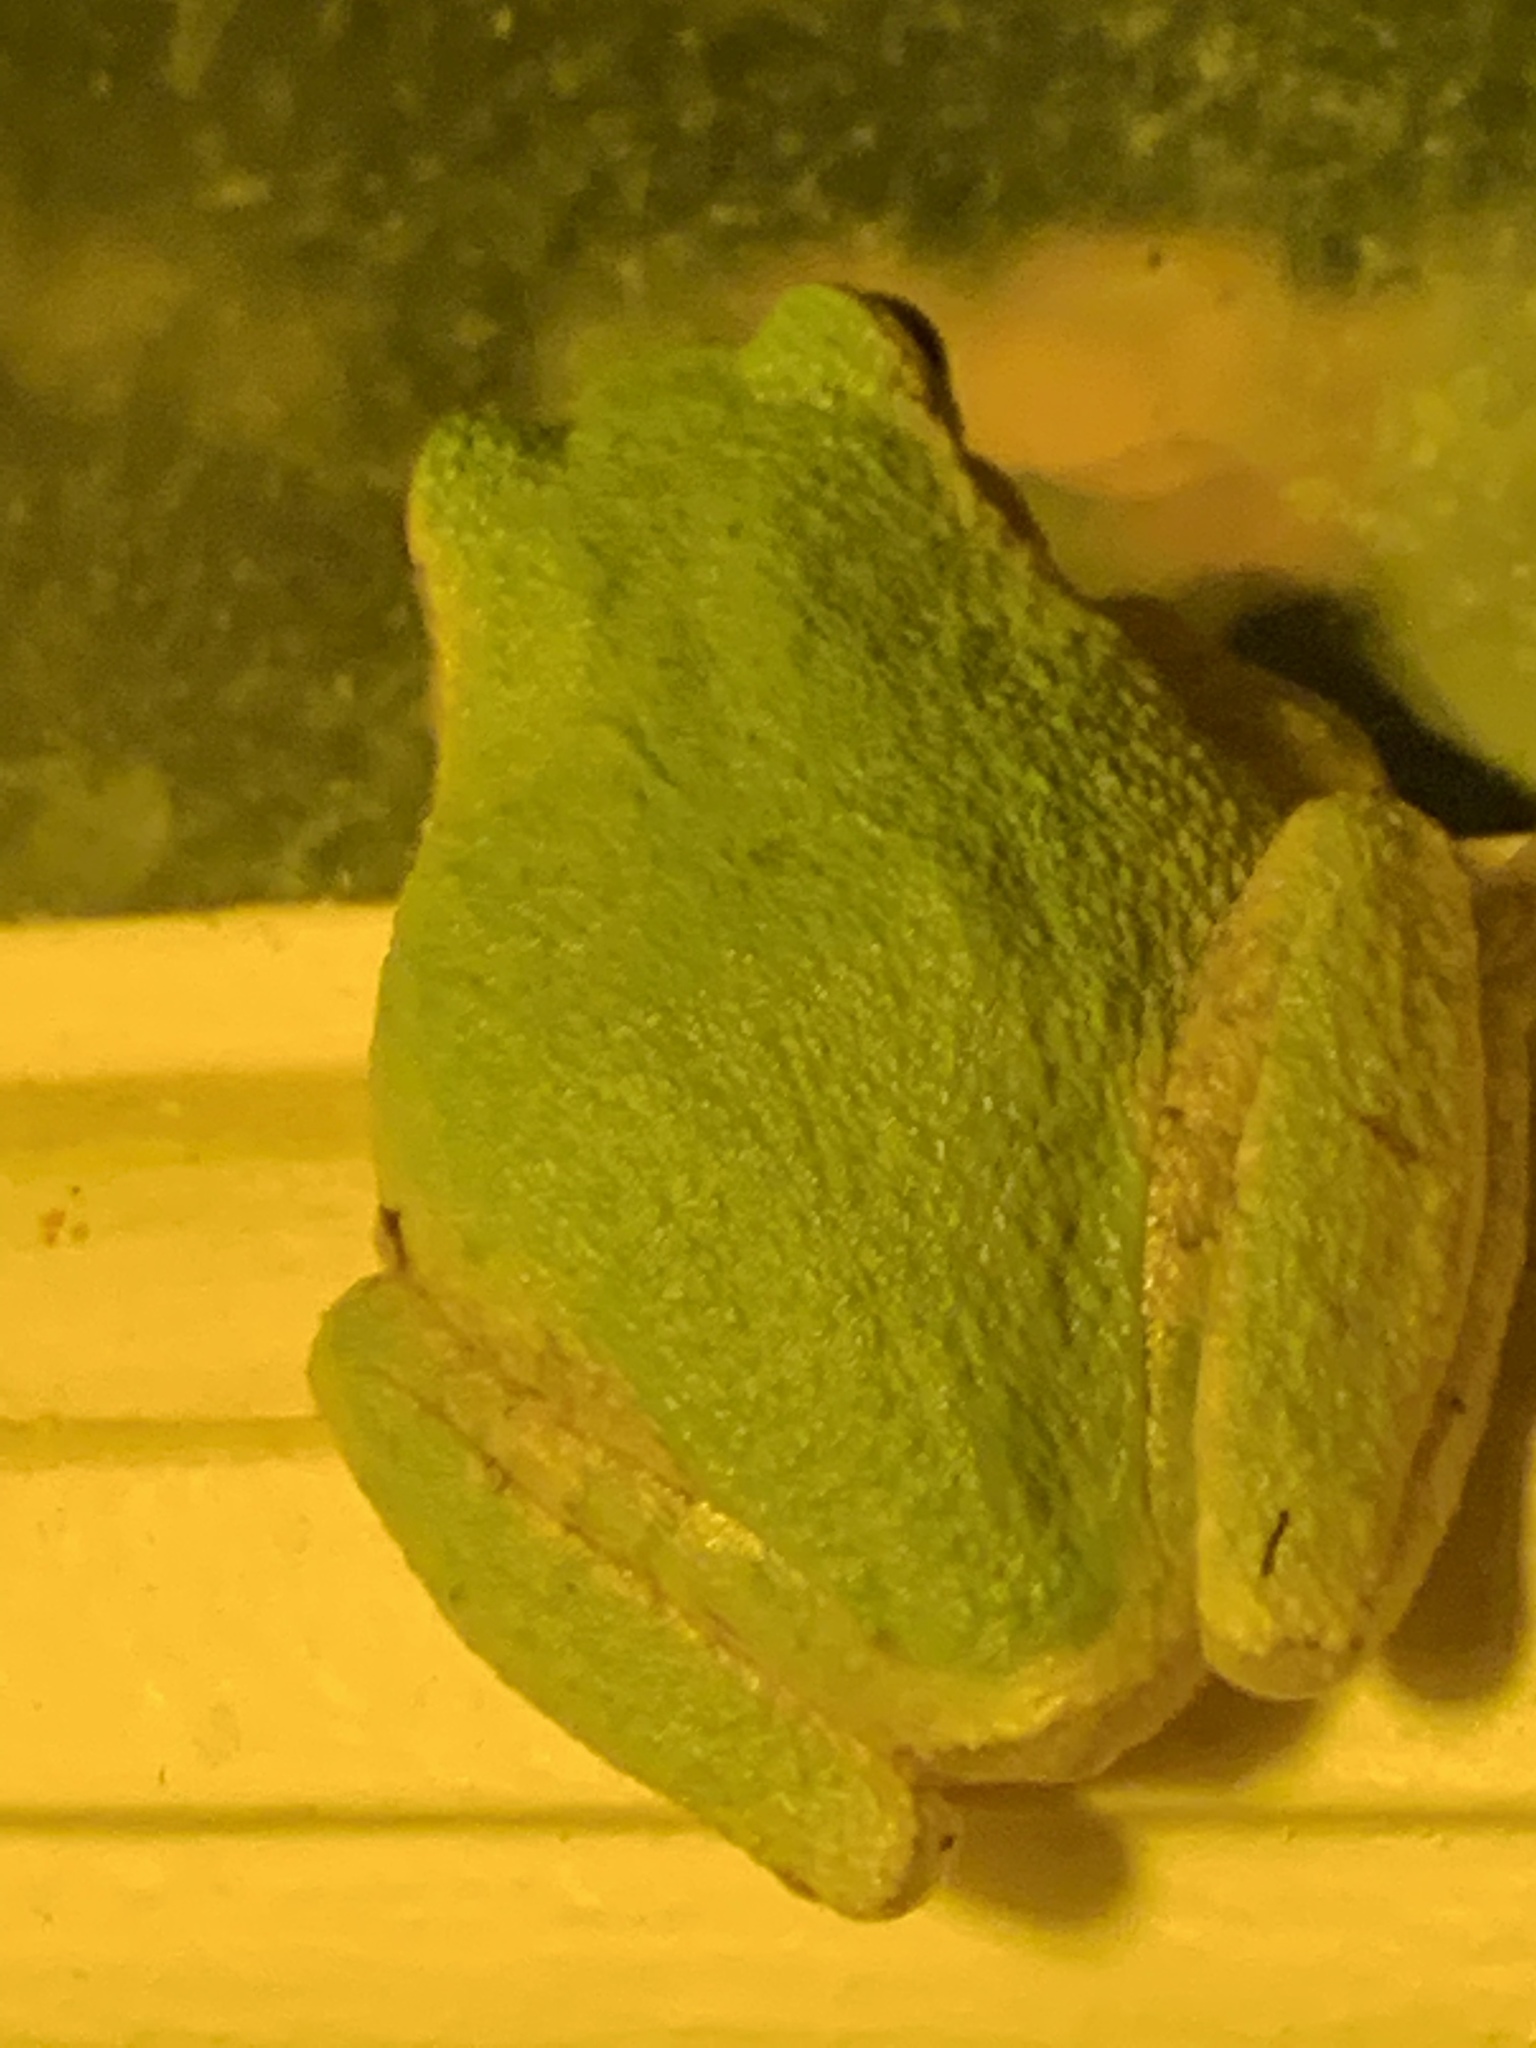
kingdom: Animalia
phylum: Chordata
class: Amphibia
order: Anura
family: Hylidae
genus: Hyla
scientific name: Hyla
